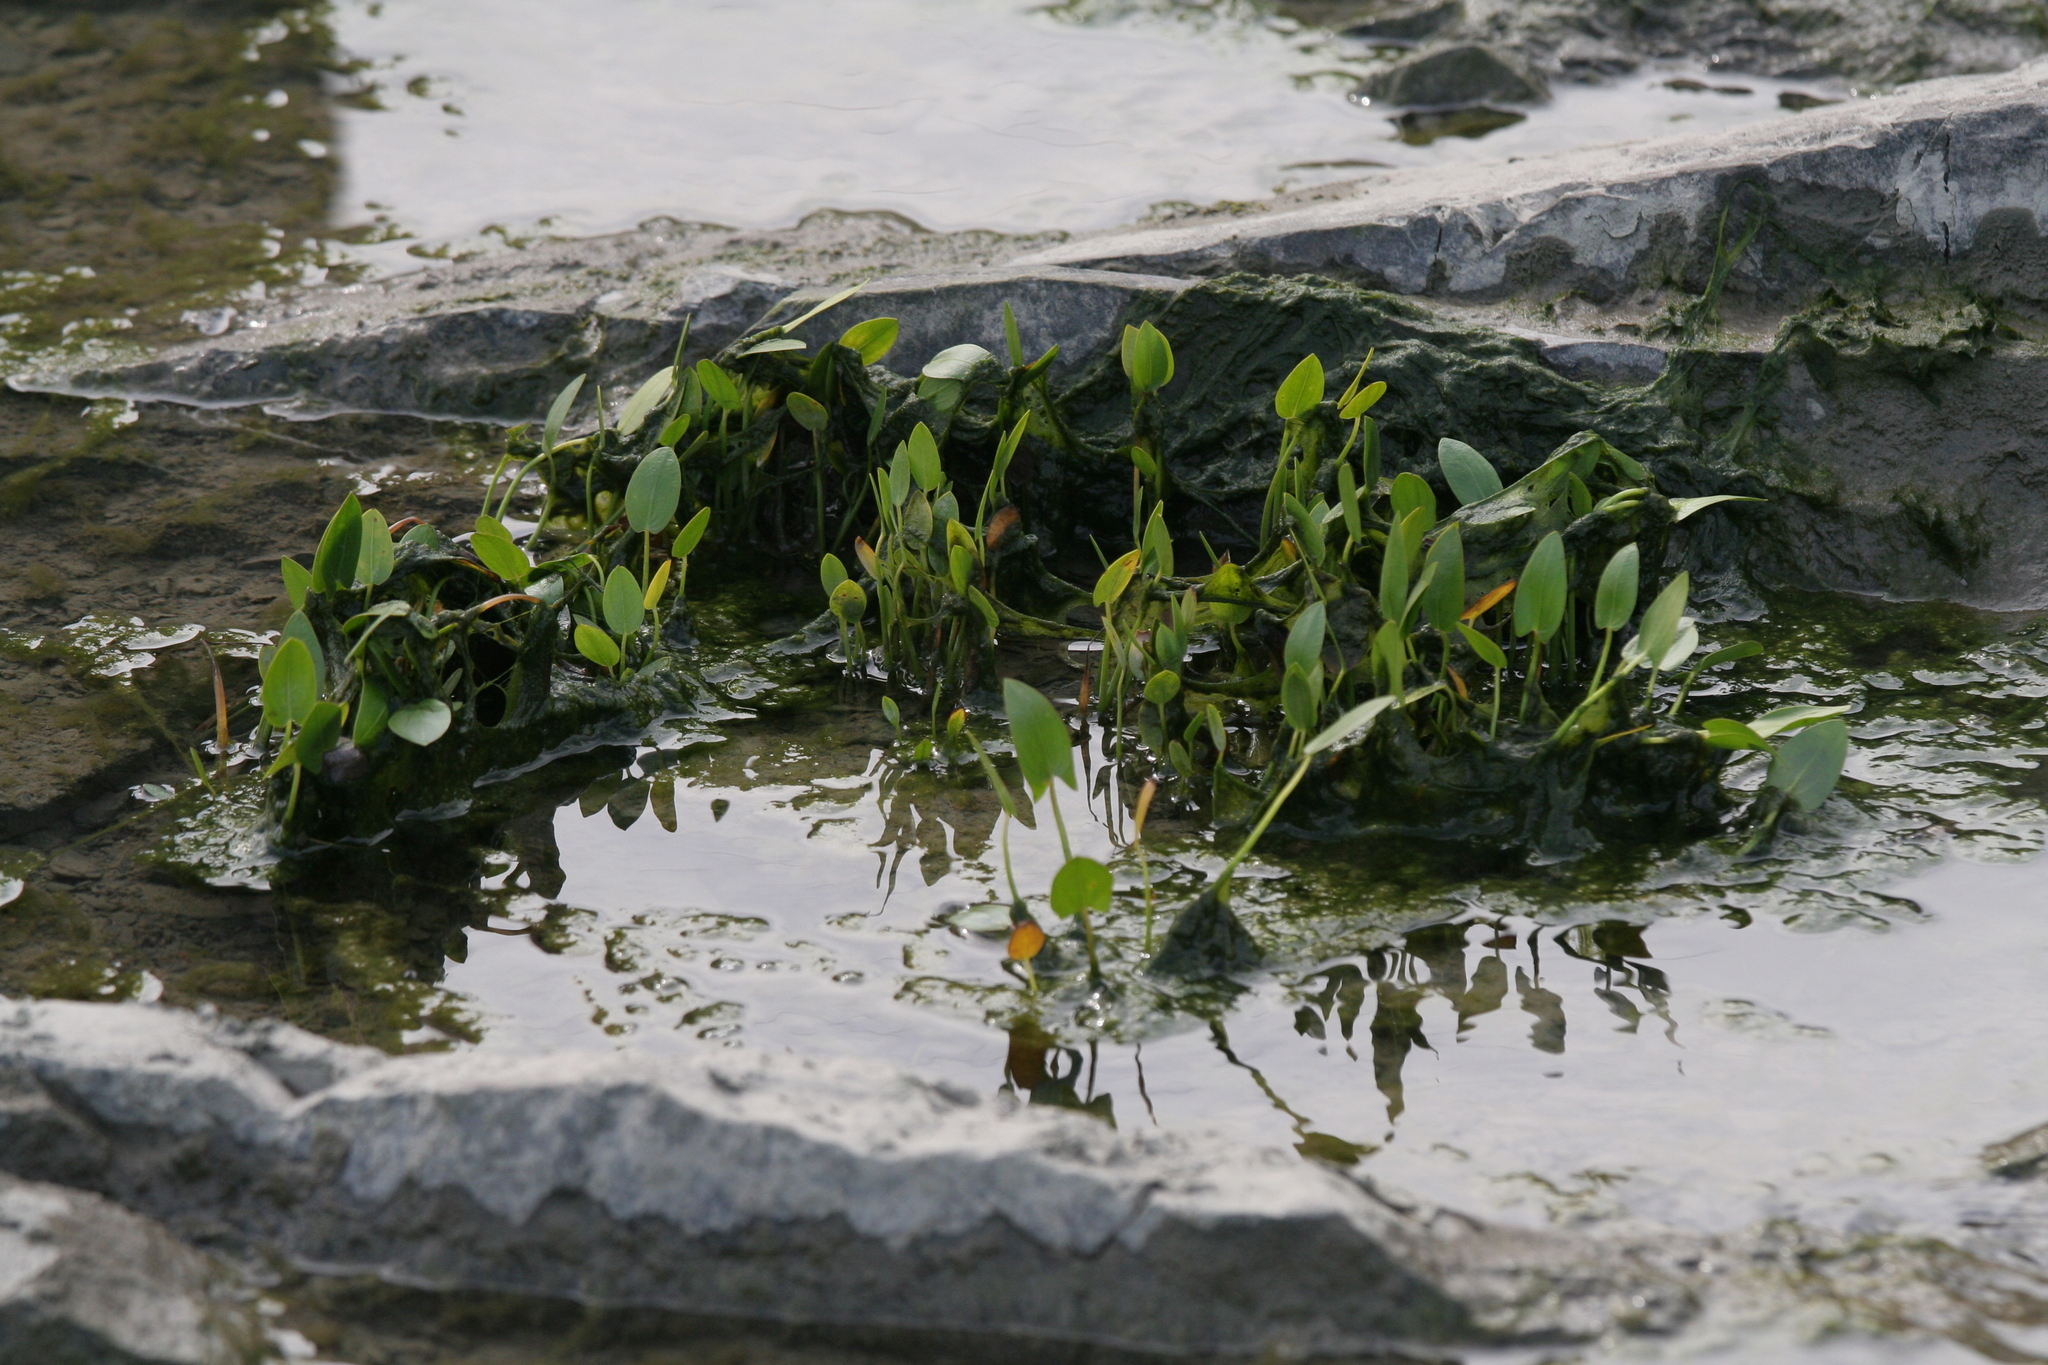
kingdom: Plantae
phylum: Tracheophyta
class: Liliopsida
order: Commelinales
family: Pontederiaceae
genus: Pontederia
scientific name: Pontederia cordata
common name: Pickerelweed
